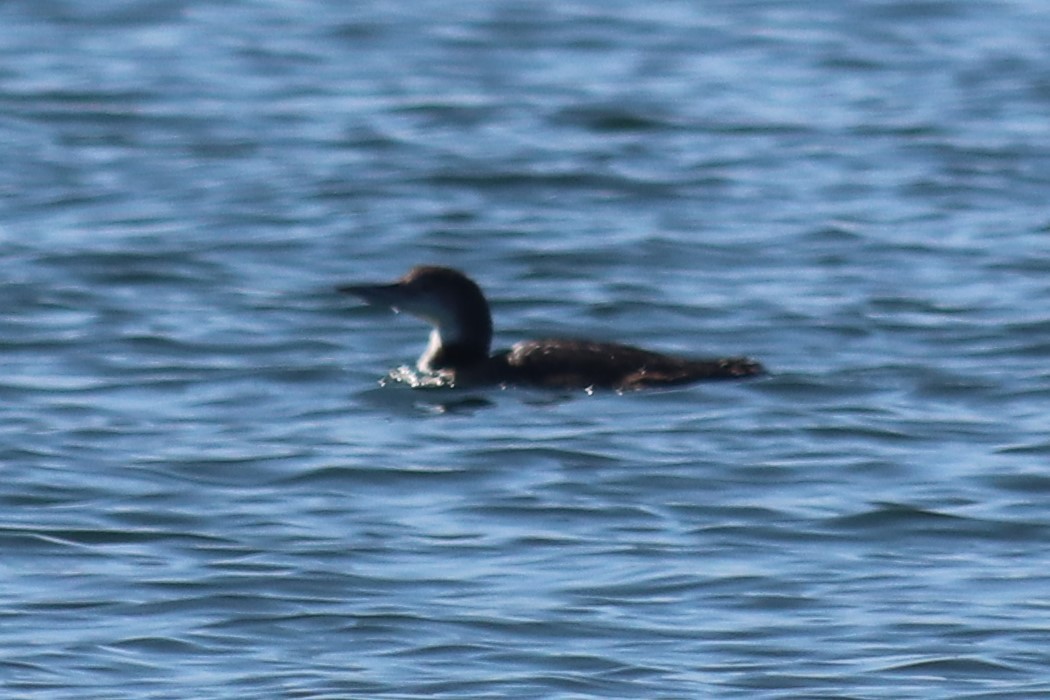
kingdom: Animalia
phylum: Chordata
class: Aves
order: Gaviiformes
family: Gaviidae
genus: Gavia
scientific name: Gavia immer
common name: Common loon
